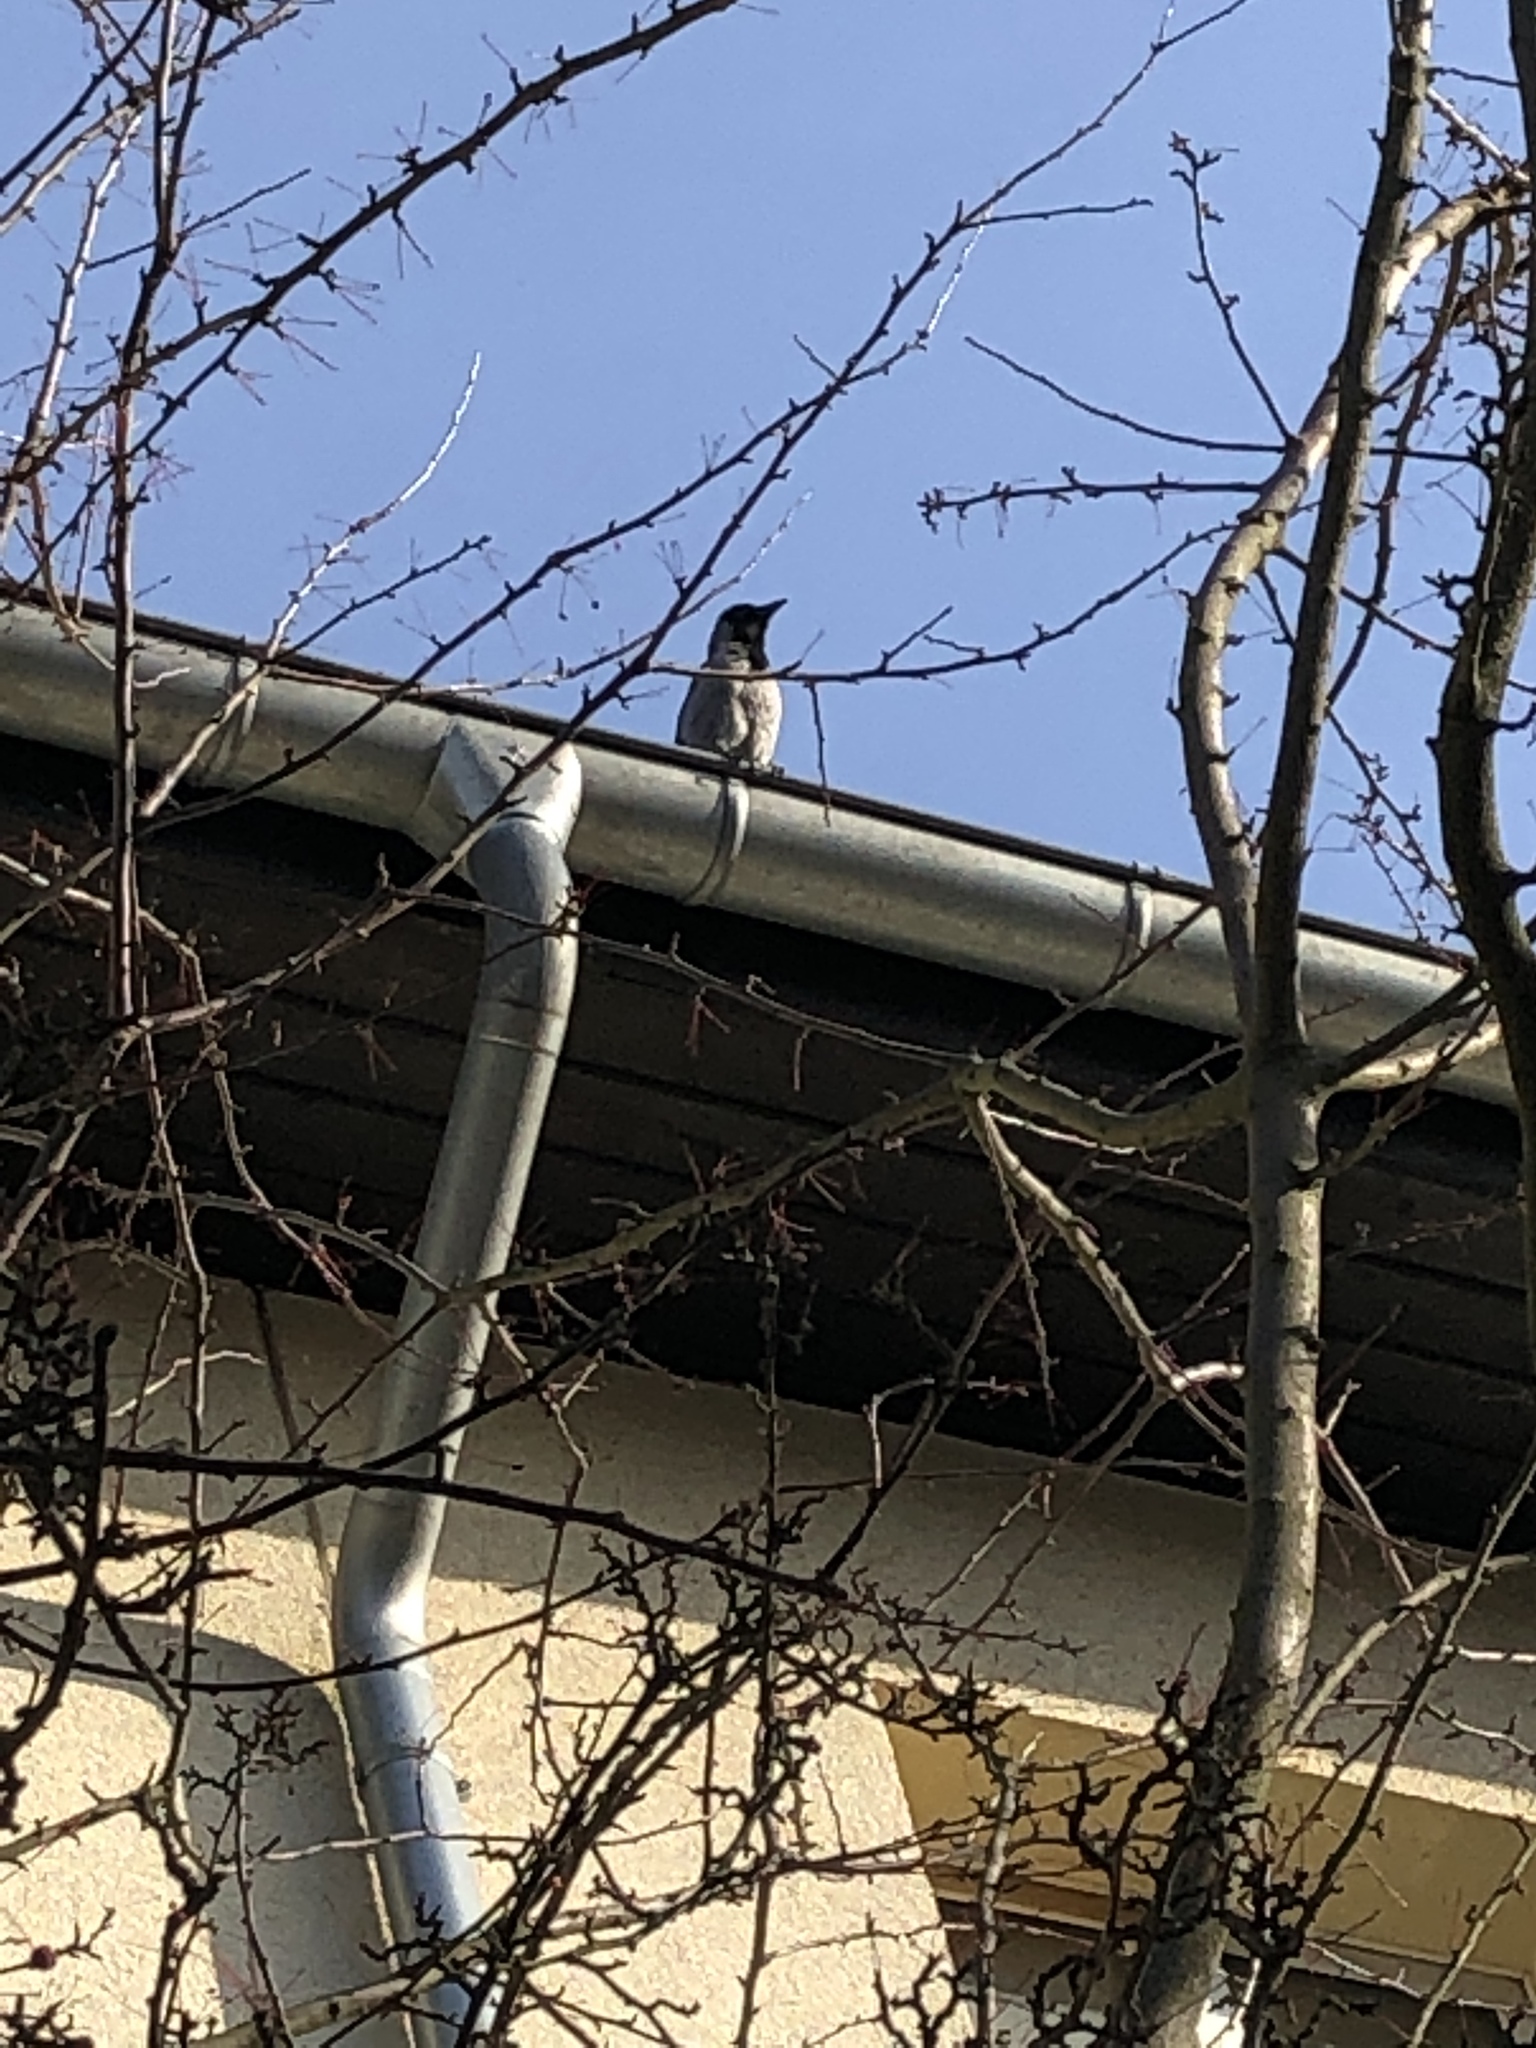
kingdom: Animalia
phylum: Chordata
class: Aves
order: Passeriformes
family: Corvidae
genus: Corvus
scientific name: Corvus cornix
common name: Hooded crow
